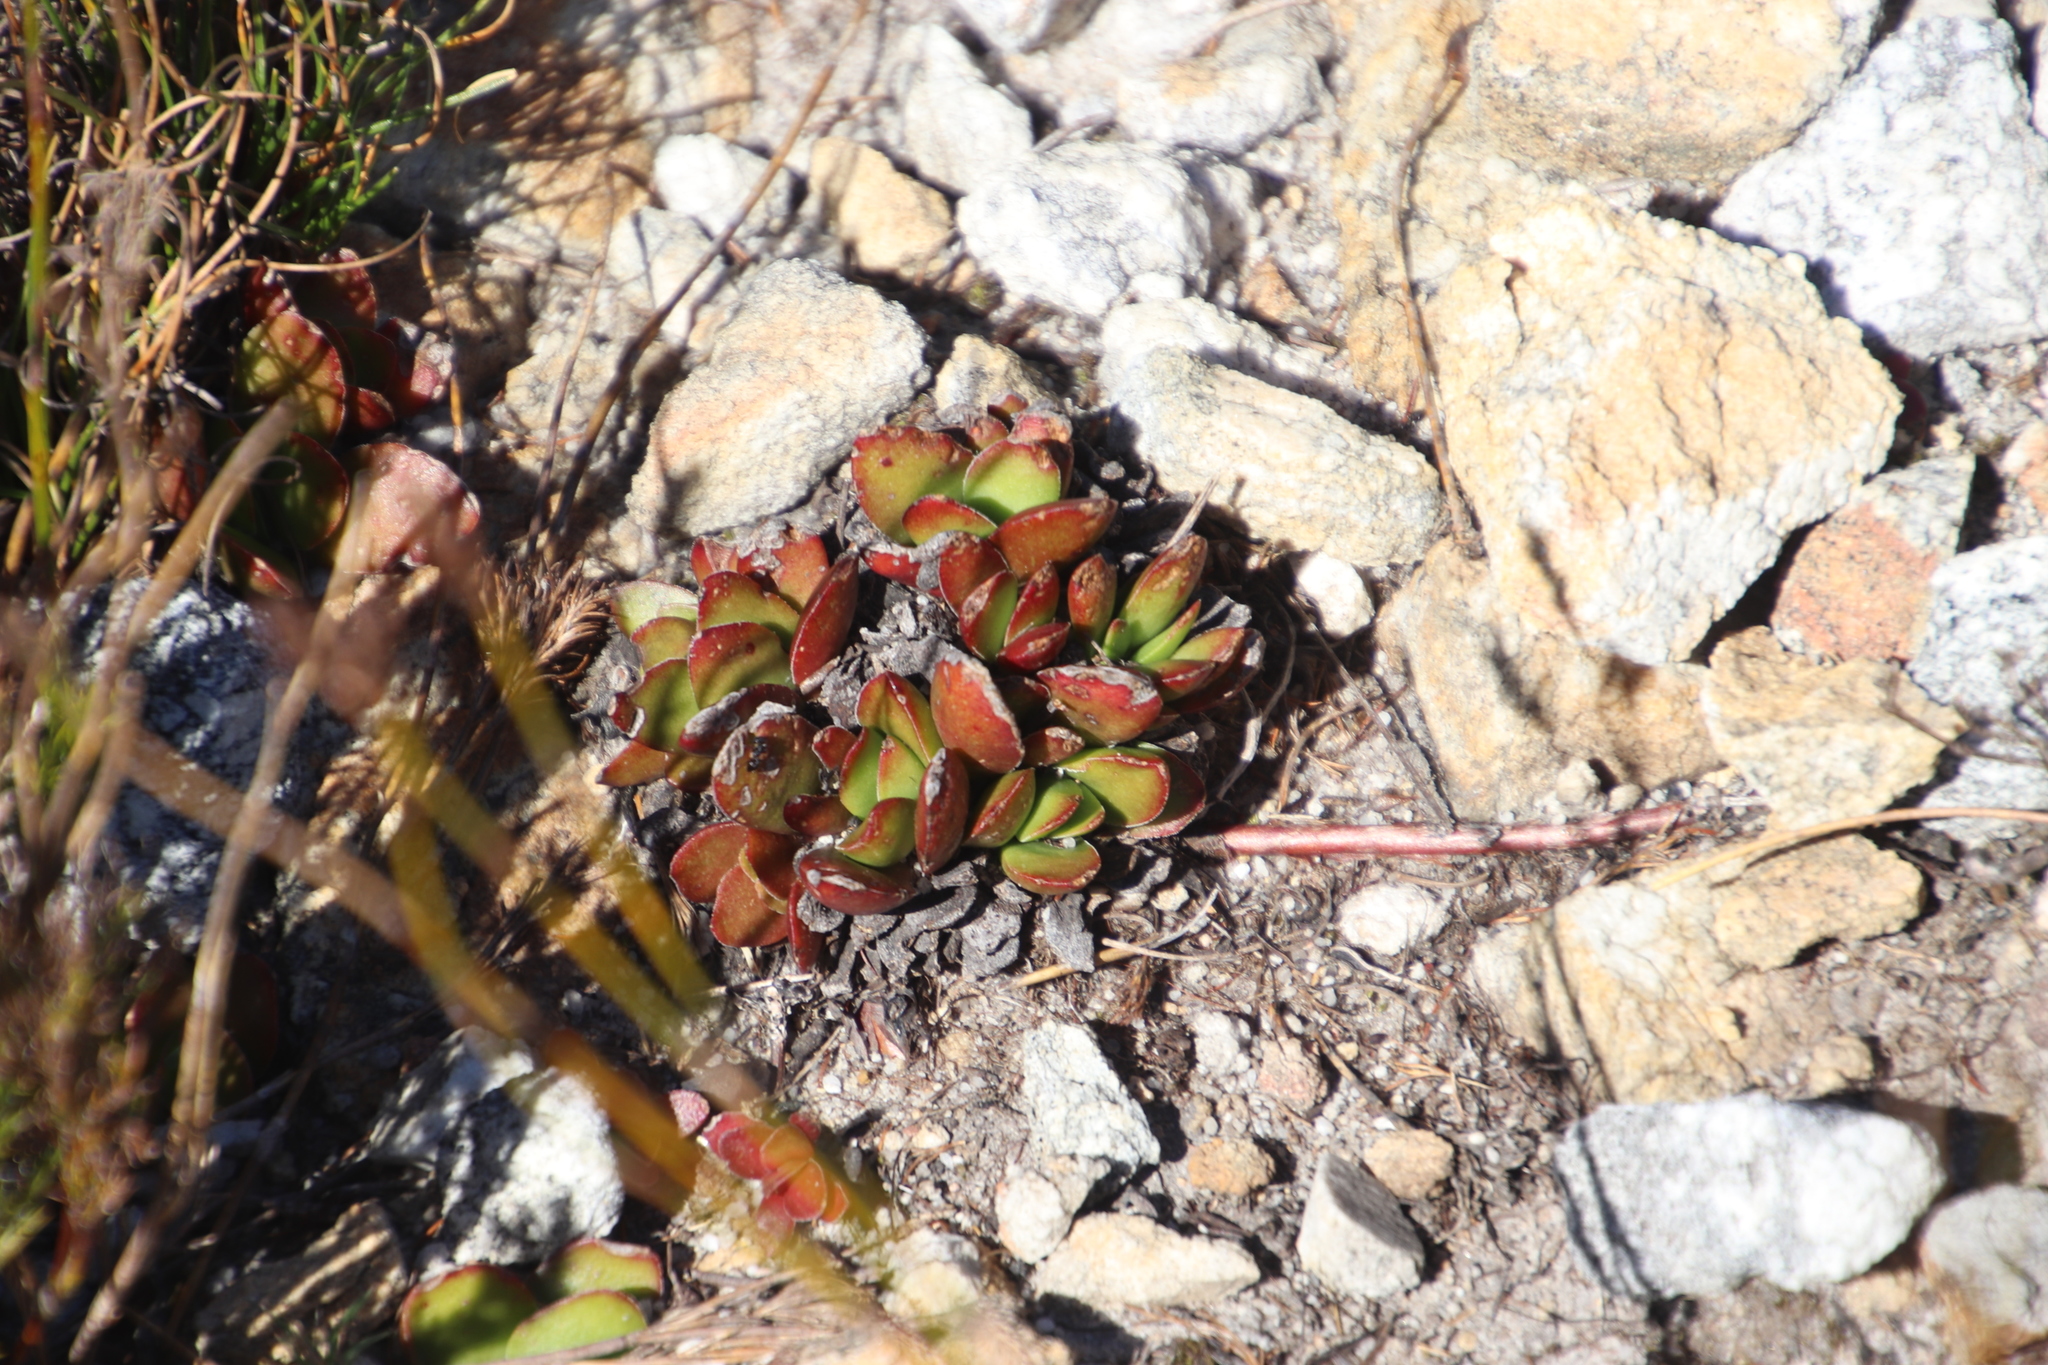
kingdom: Plantae
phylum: Tracheophyta
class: Magnoliopsida
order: Saxifragales
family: Crassulaceae
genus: Crassula
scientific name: Crassula nudicaulis
